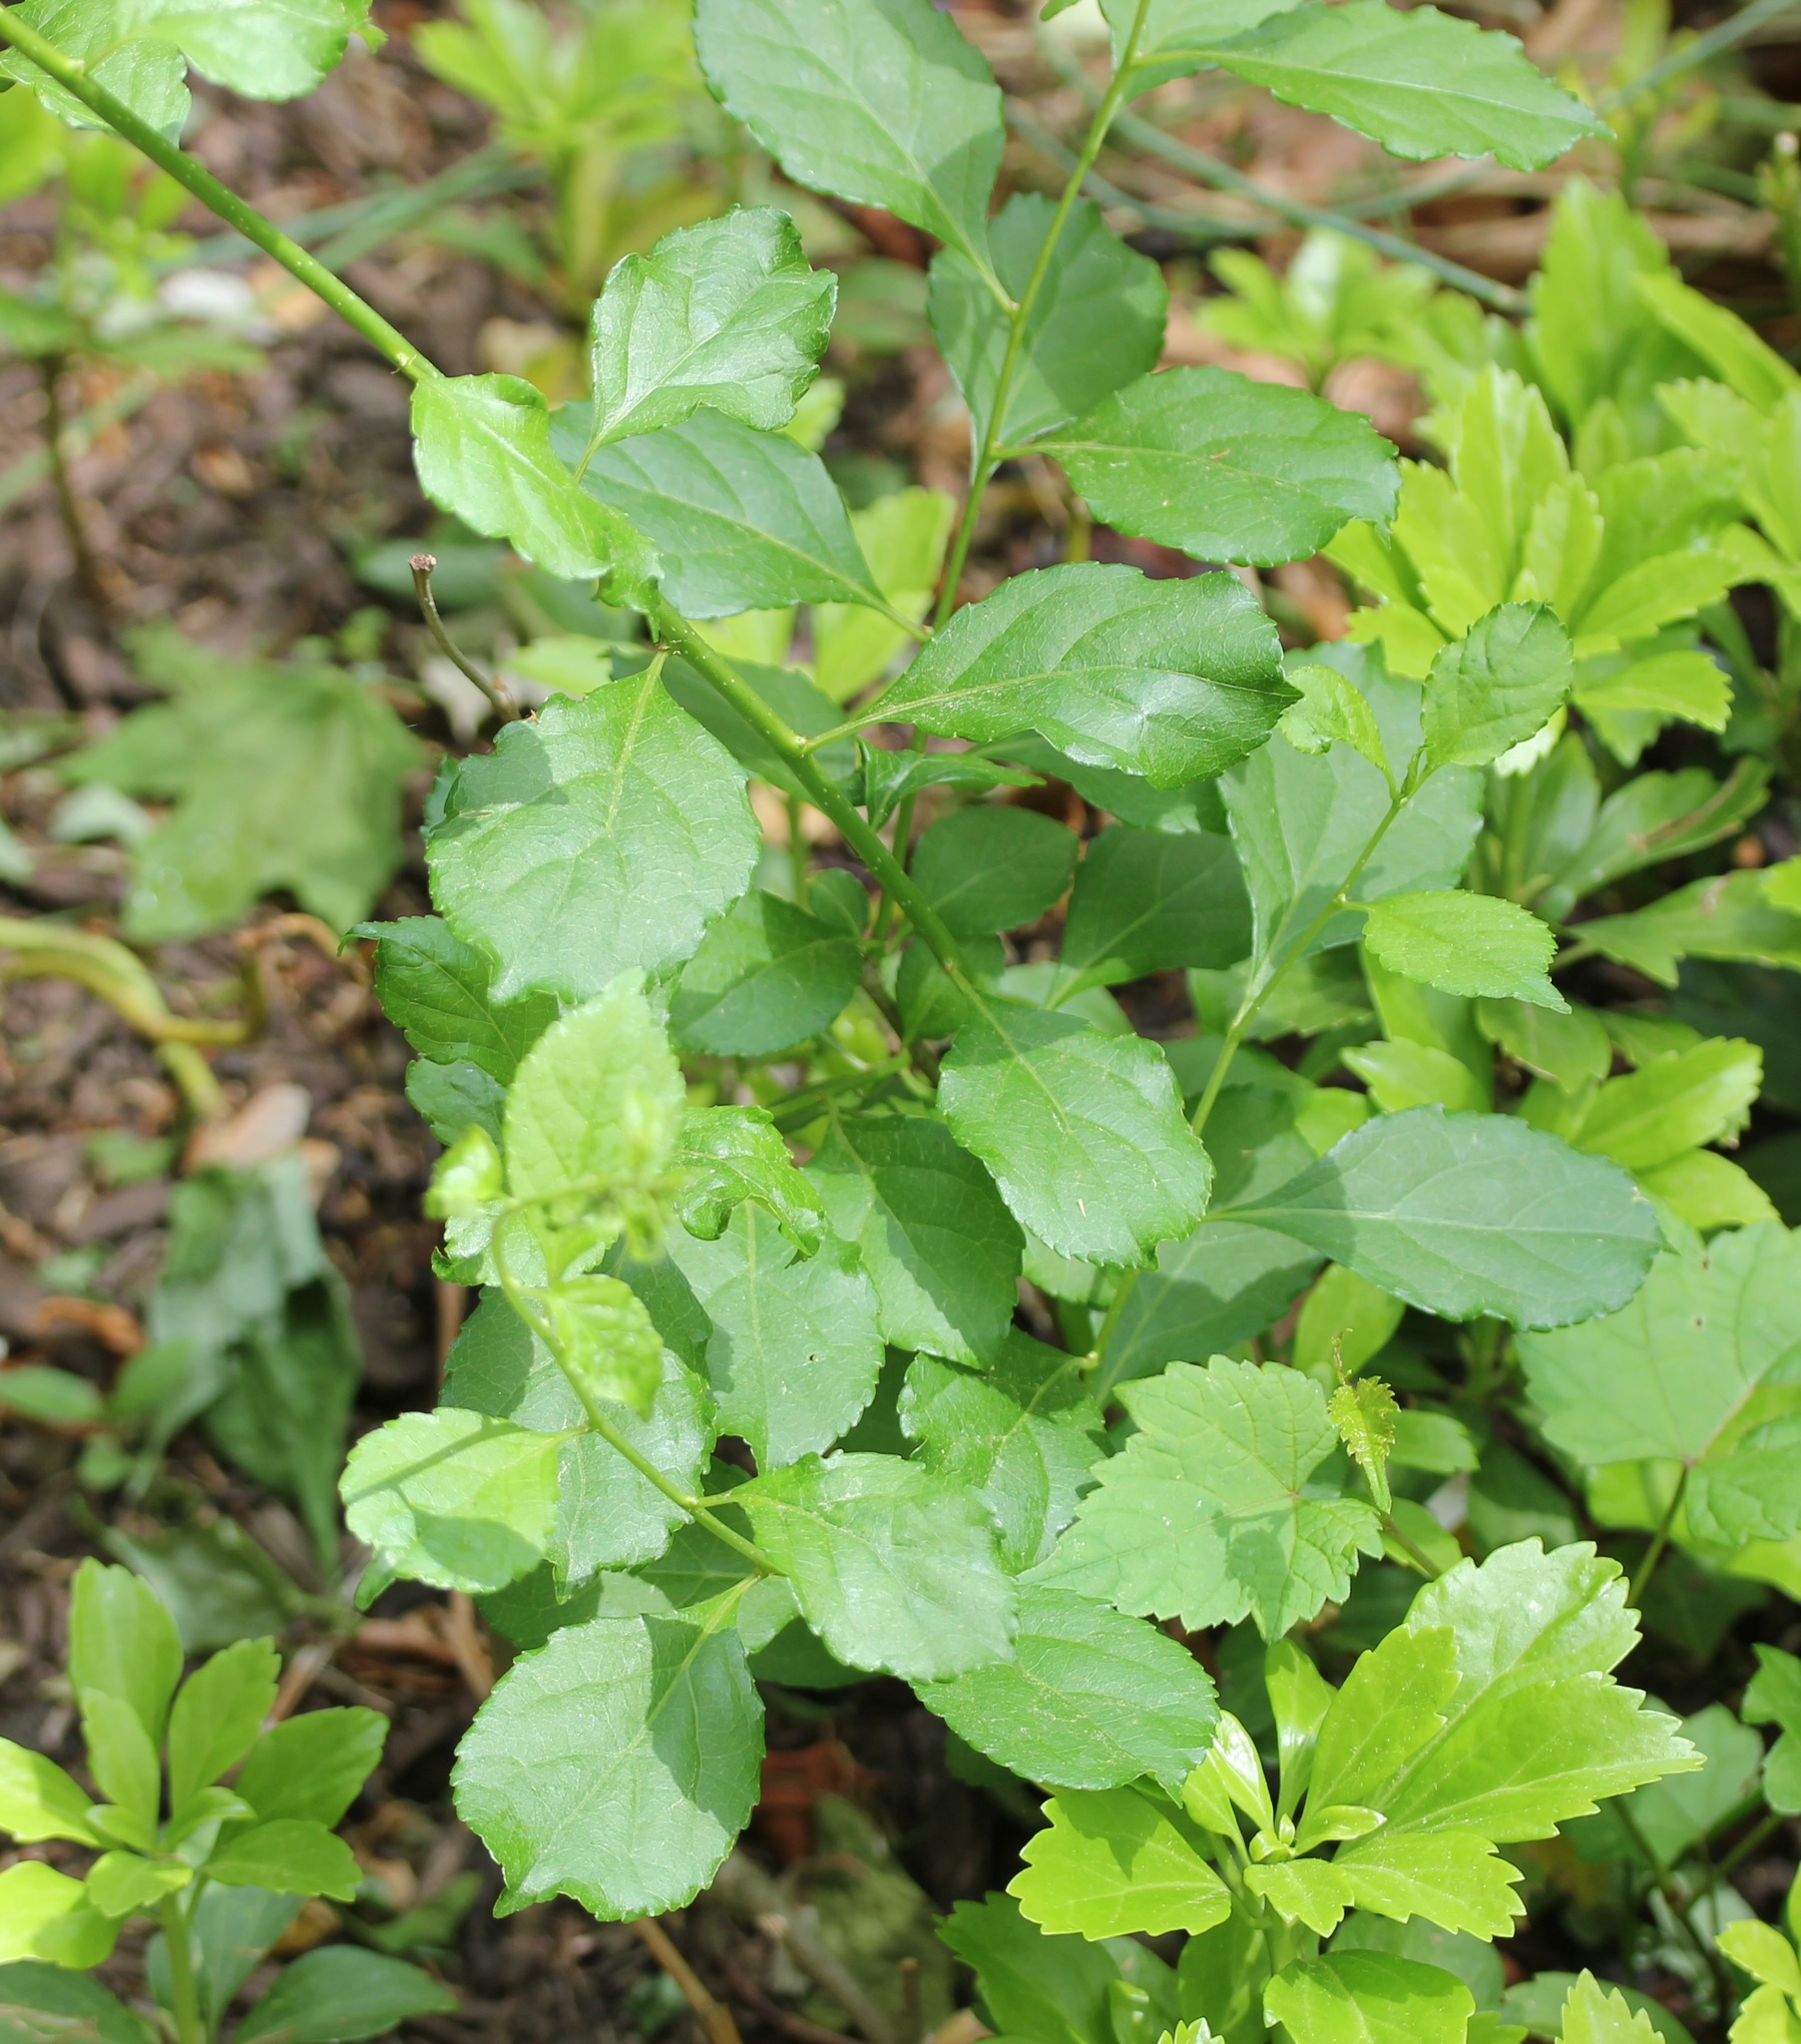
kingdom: Plantae
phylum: Tracheophyta
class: Magnoliopsida
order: Celastrales
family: Celastraceae
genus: Celastrus
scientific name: Celastrus orbiculatus
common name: Oriental bittersweet
